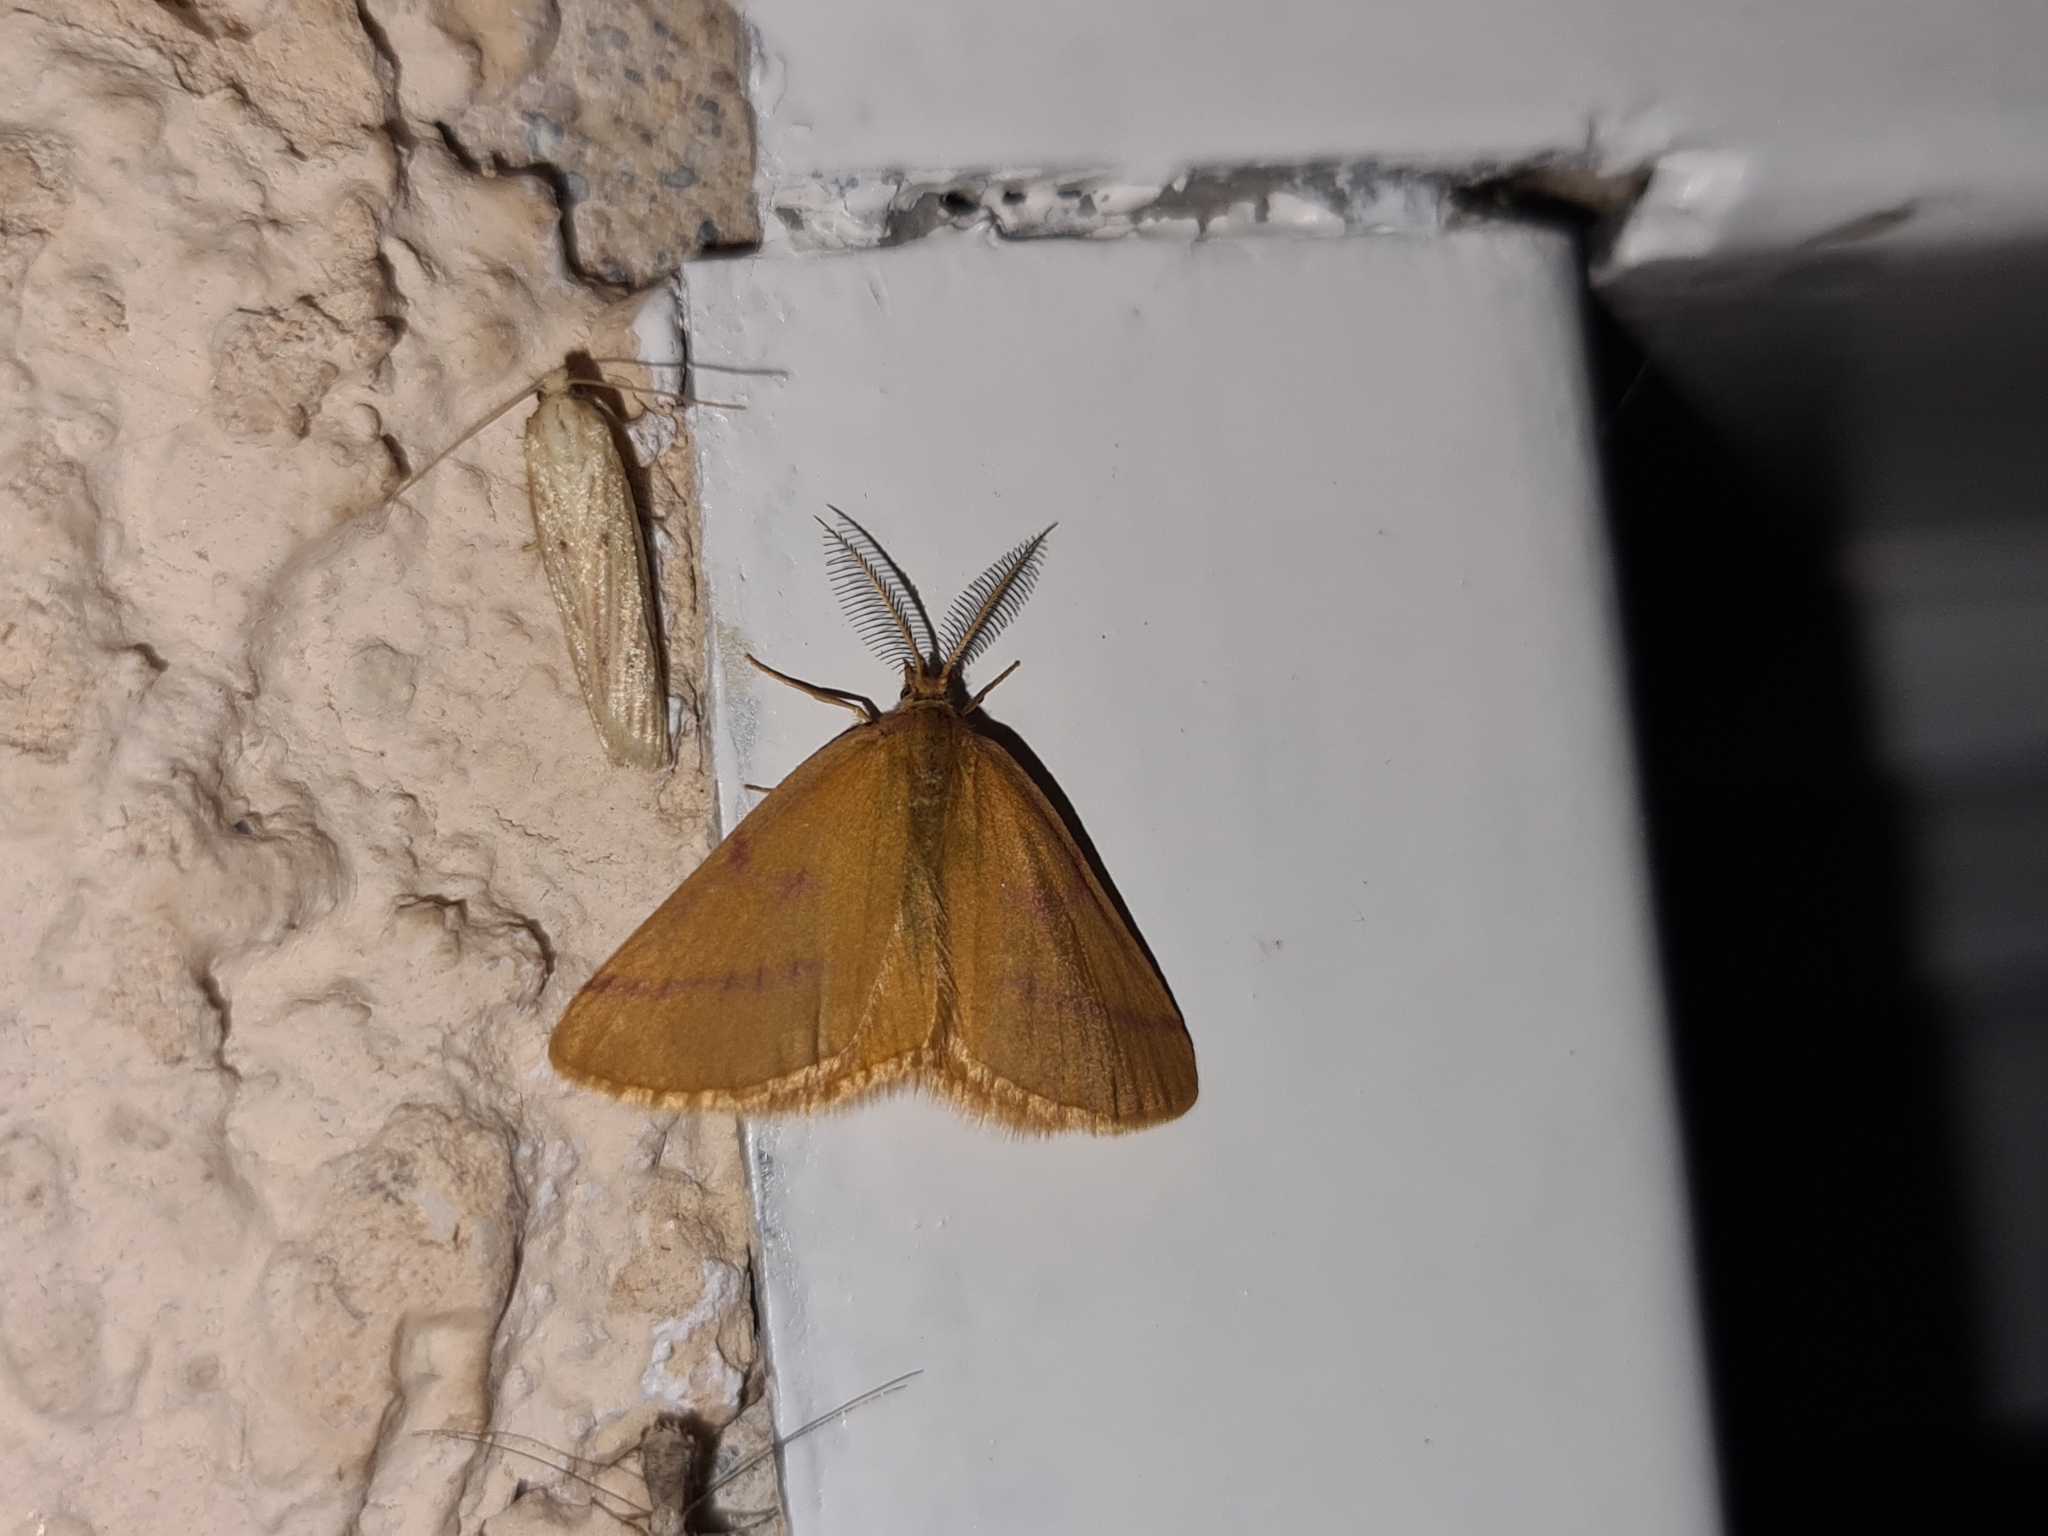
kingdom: Animalia
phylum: Arthropoda
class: Insecta
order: Lepidoptera
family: Geometridae
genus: Lythria
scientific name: Lythria purpuraria
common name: Purple-barred yellow
